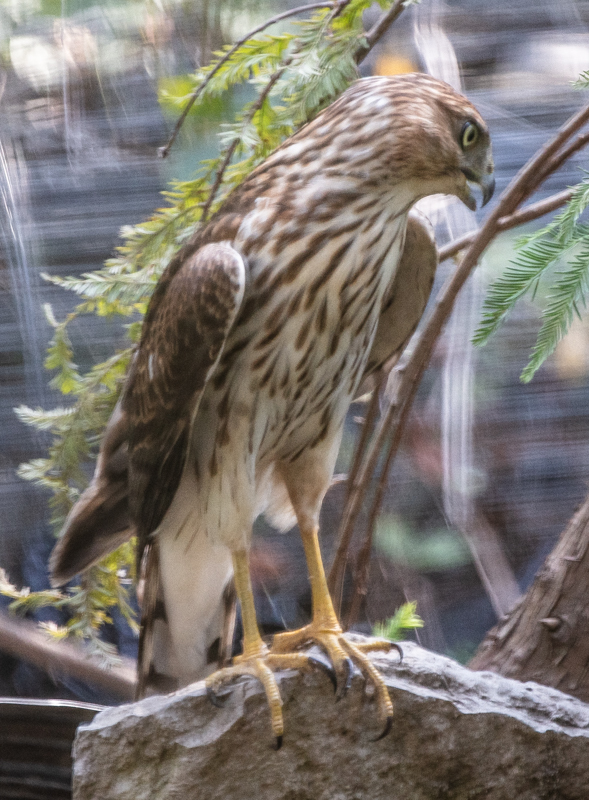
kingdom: Animalia
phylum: Chordata
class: Aves
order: Accipitriformes
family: Accipitridae
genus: Accipiter
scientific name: Accipiter cooperii
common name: Cooper's hawk
